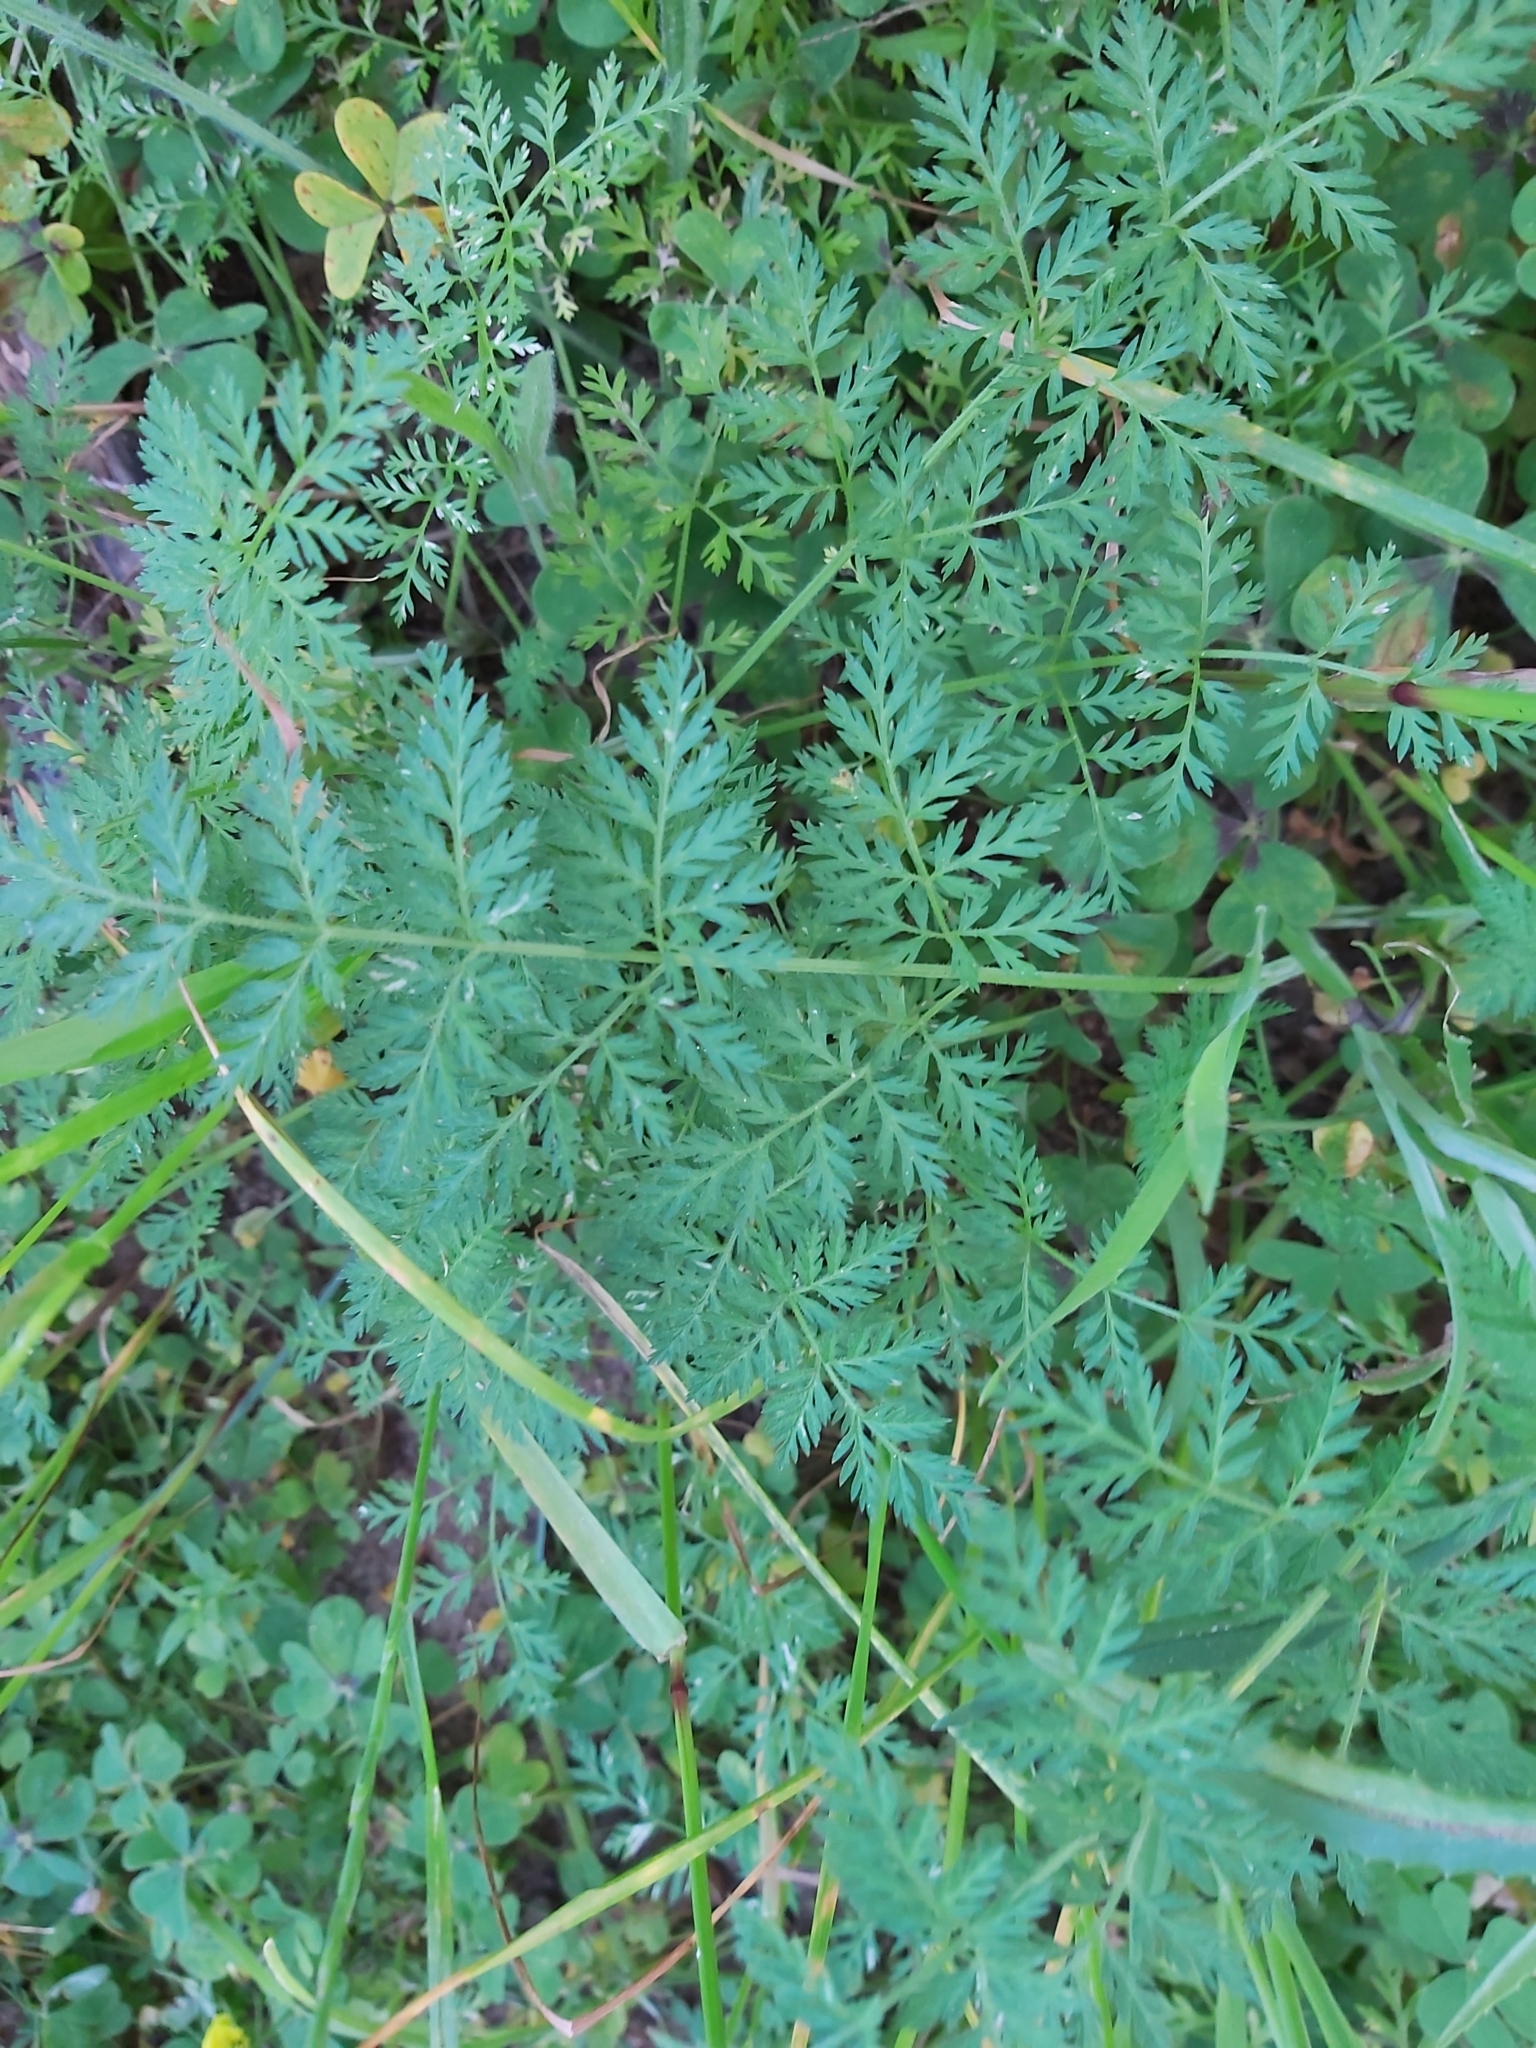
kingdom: Plantae
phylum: Tracheophyta
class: Magnoliopsida
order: Apiales
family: Apiaceae
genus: Torilis
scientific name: Torilis africana
